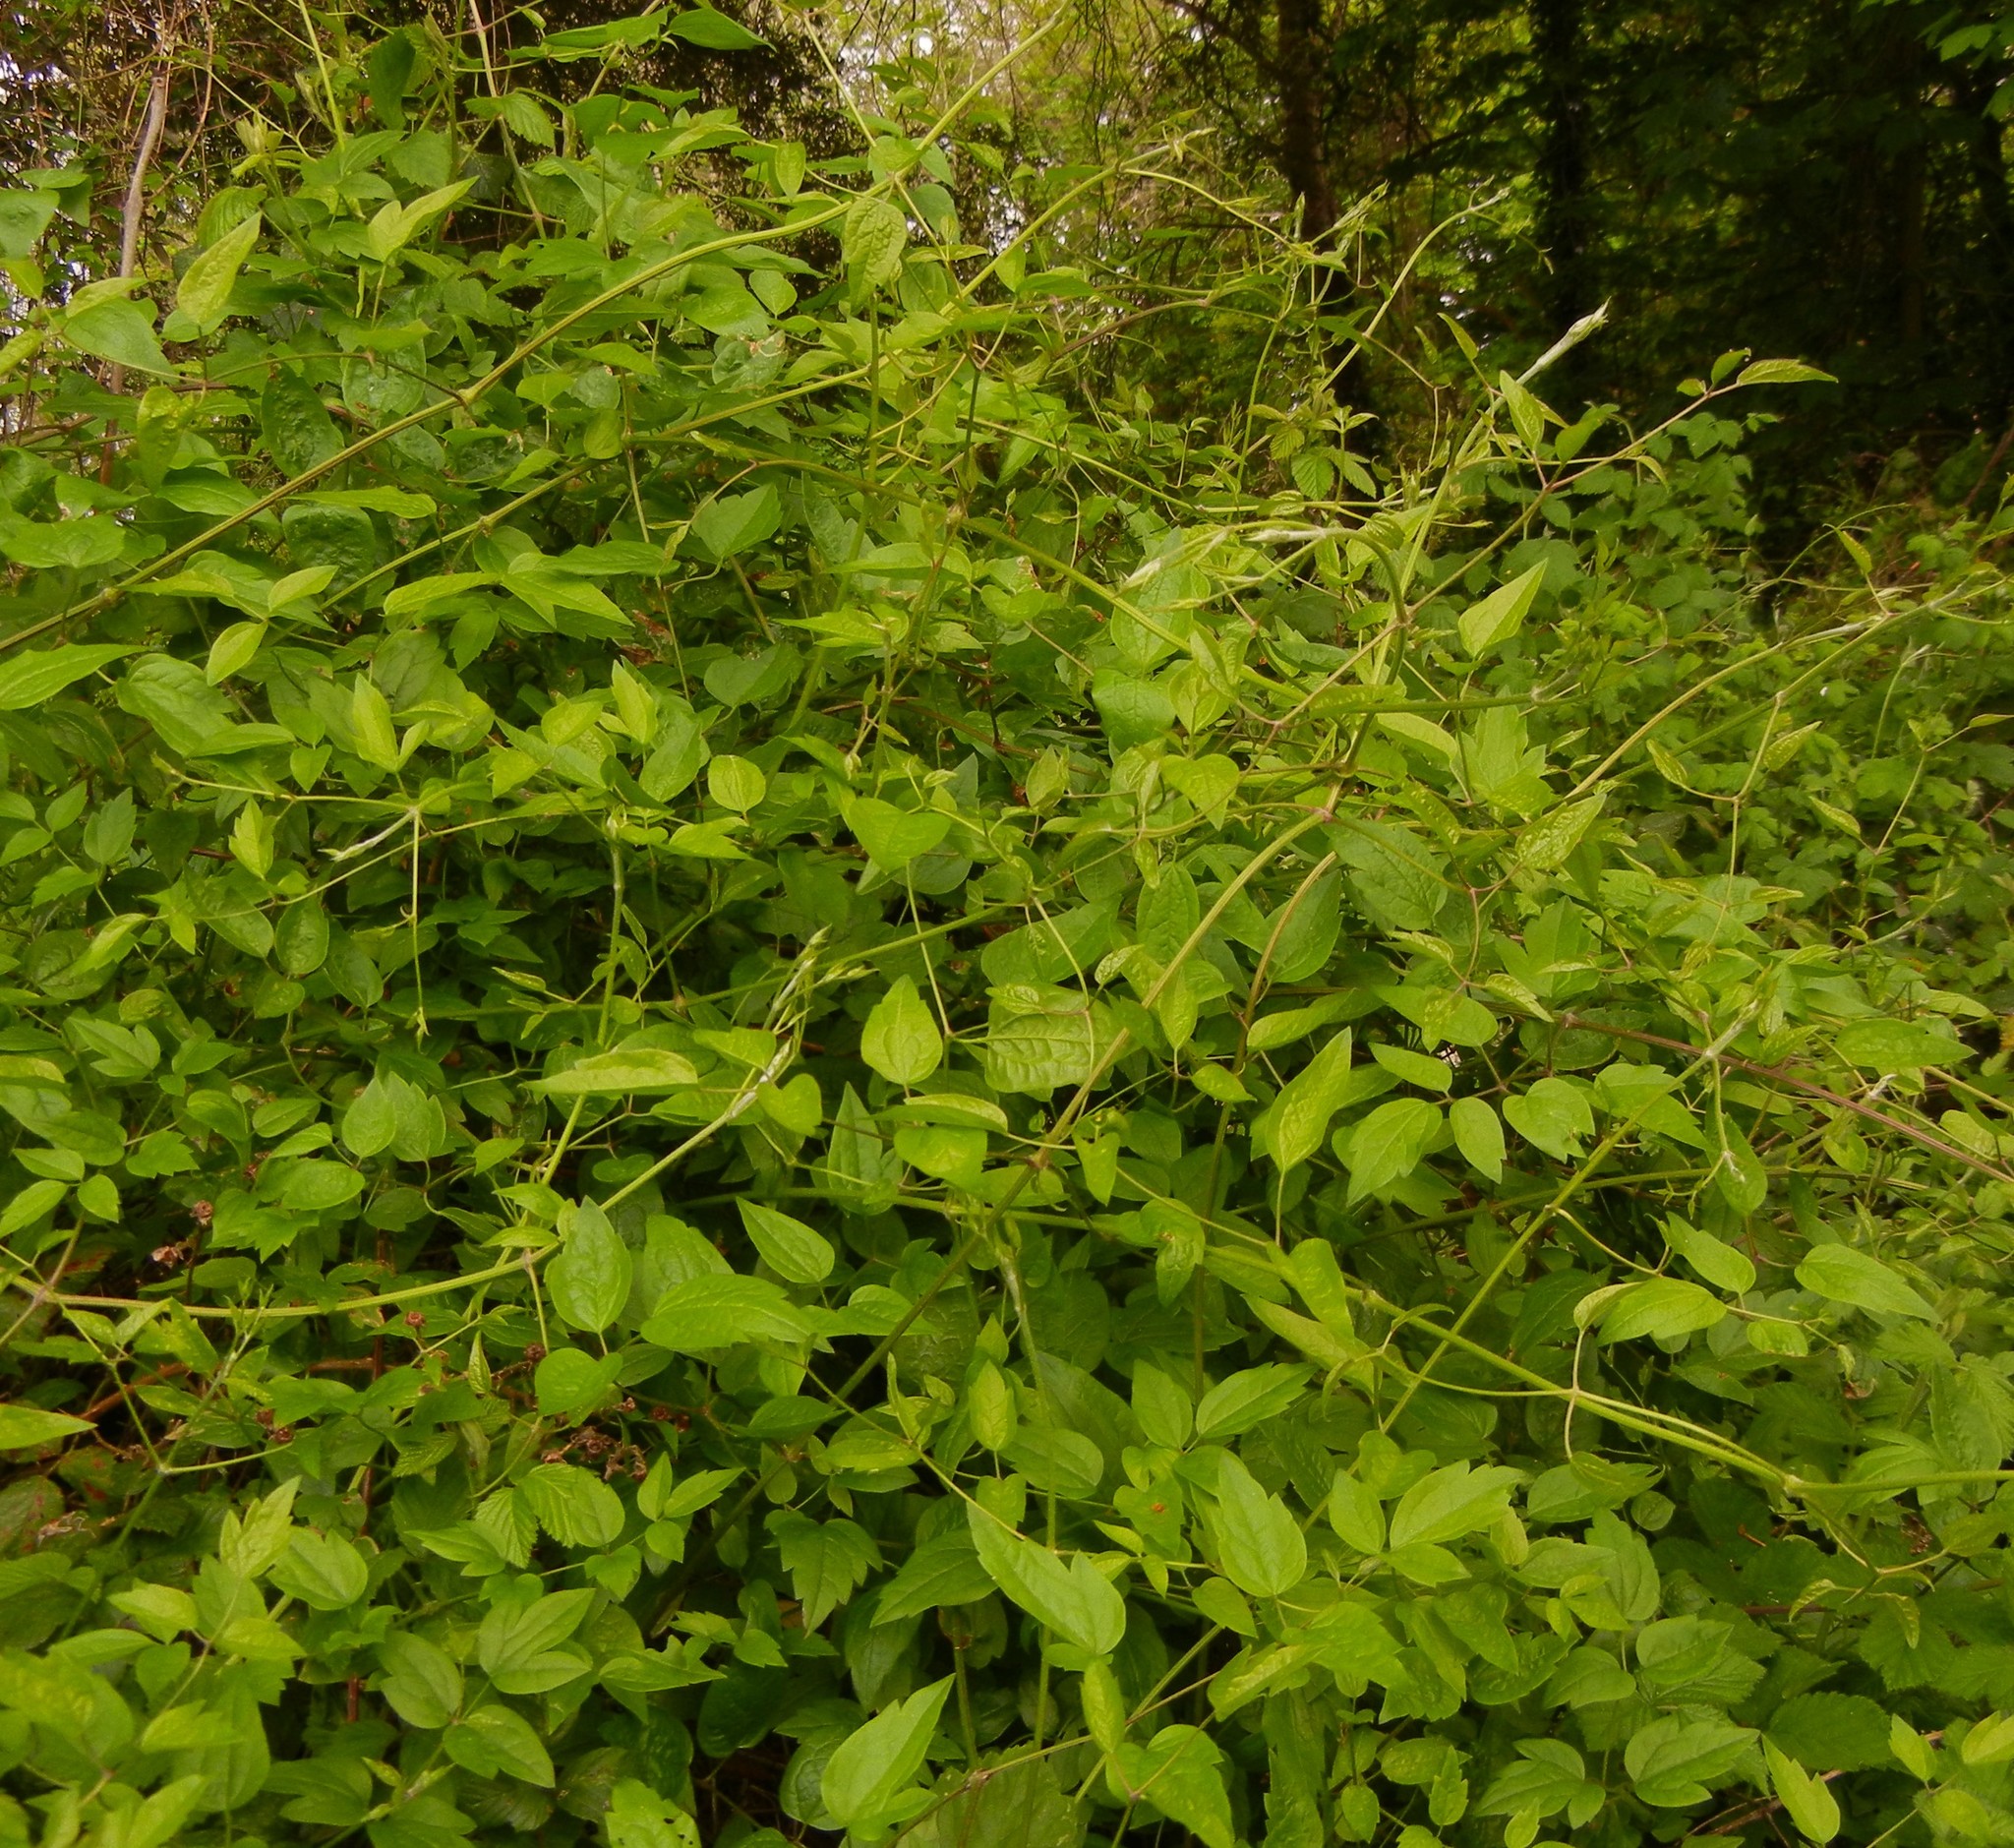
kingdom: Plantae
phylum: Tracheophyta
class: Magnoliopsida
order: Ranunculales
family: Ranunculaceae
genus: Clematis
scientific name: Clematis vitalba
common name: Evergreen clematis
